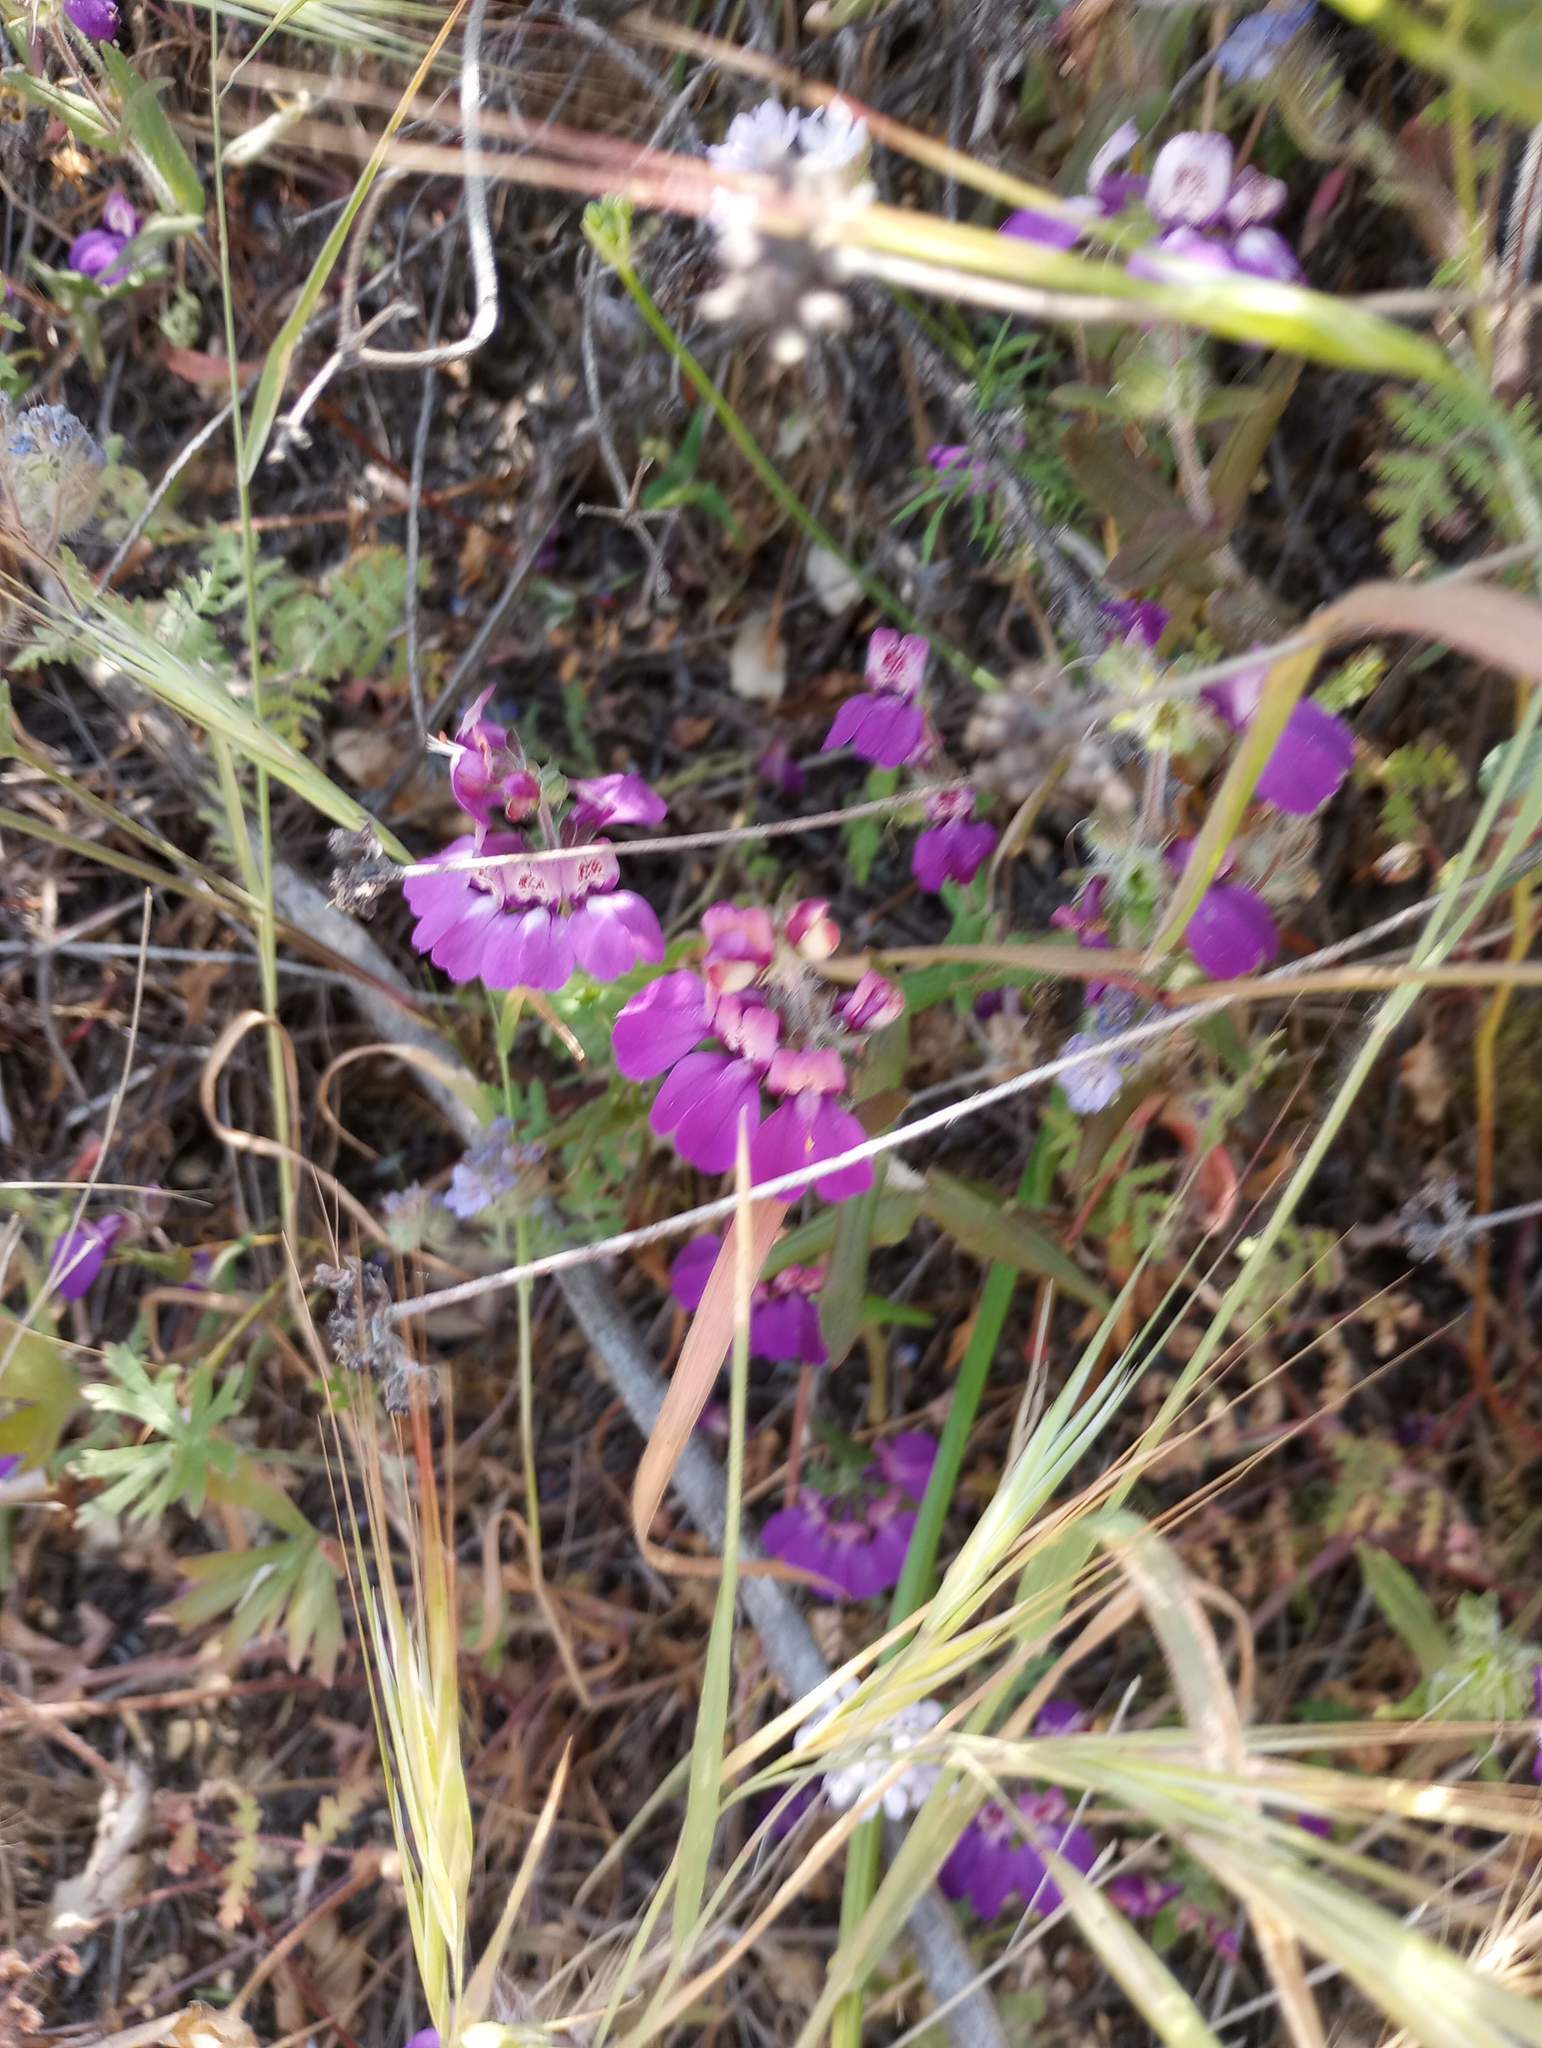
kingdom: Plantae
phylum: Tracheophyta
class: Magnoliopsida
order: Lamiales
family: Plantaginaceae
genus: Collinsia
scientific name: Collinsia heterophylla
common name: Chinese-houses
